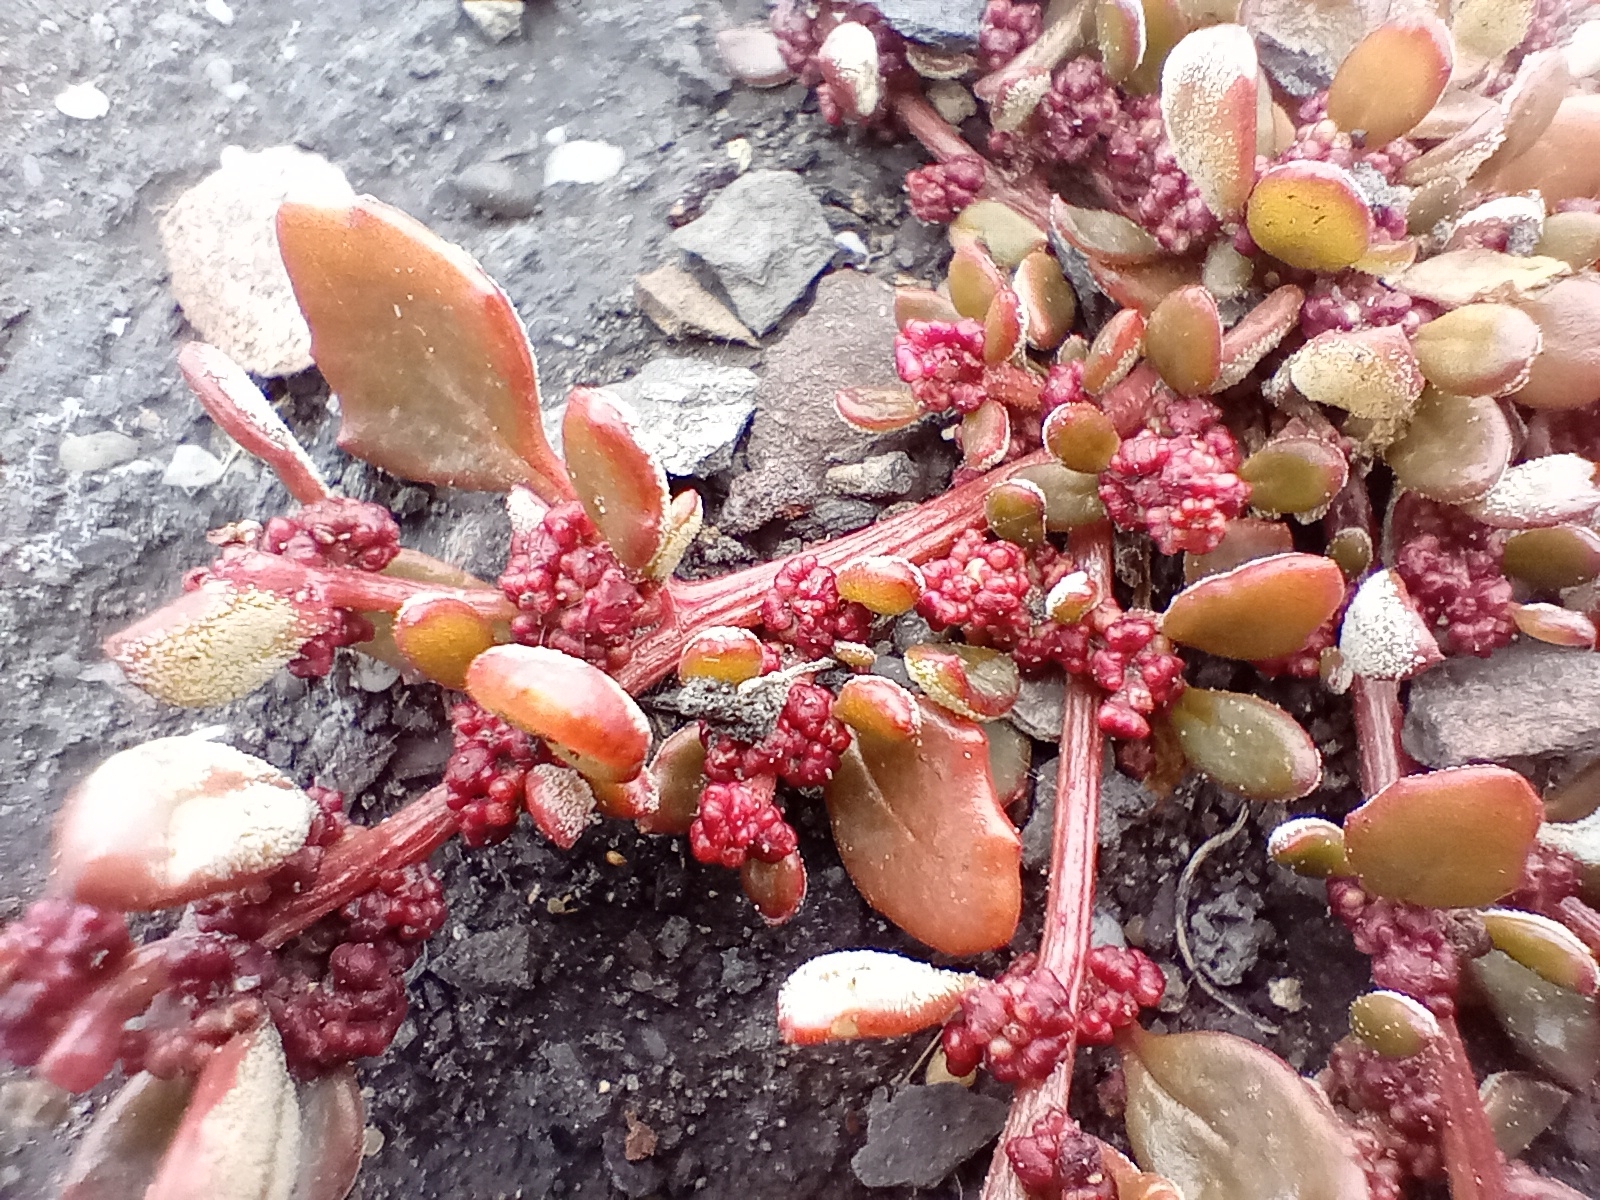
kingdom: Plantae
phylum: Tracheophyta
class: Magnoliopsida
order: Caryophyllales
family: Amaranthaceae
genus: Oxybasis
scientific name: Oxybasis ambigua
